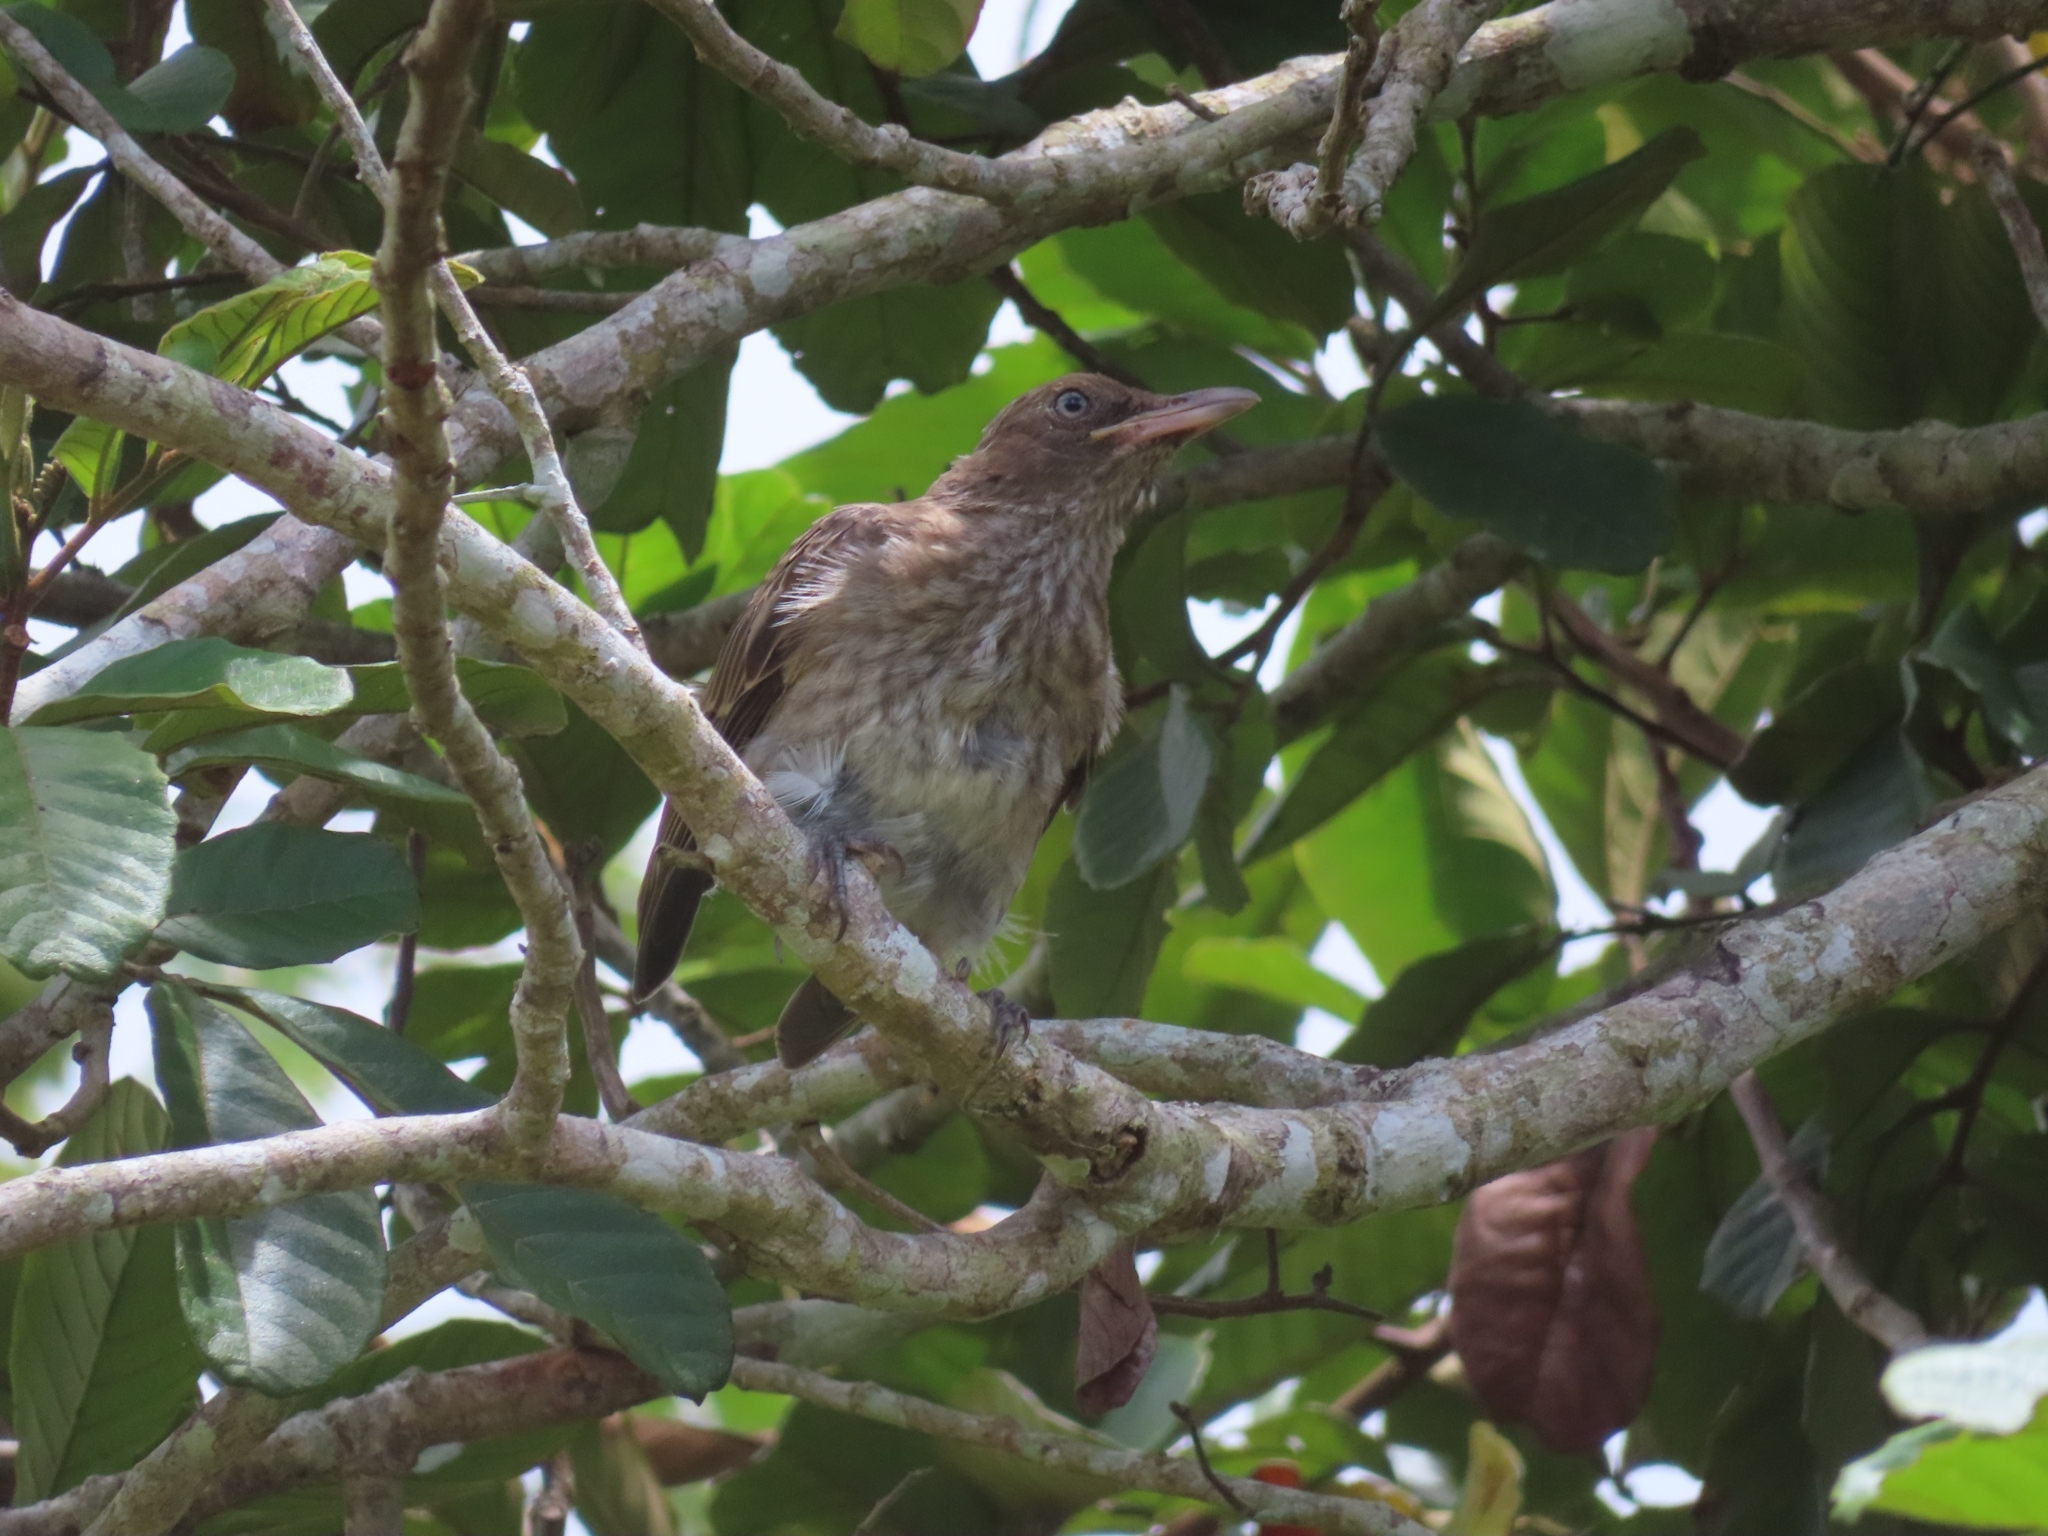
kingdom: Animalia
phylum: Chordata
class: Aves
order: Passeriformes
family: Mimidae
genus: Margarops
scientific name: Margarops fuscatus
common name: Pearly-eyed thrasher
